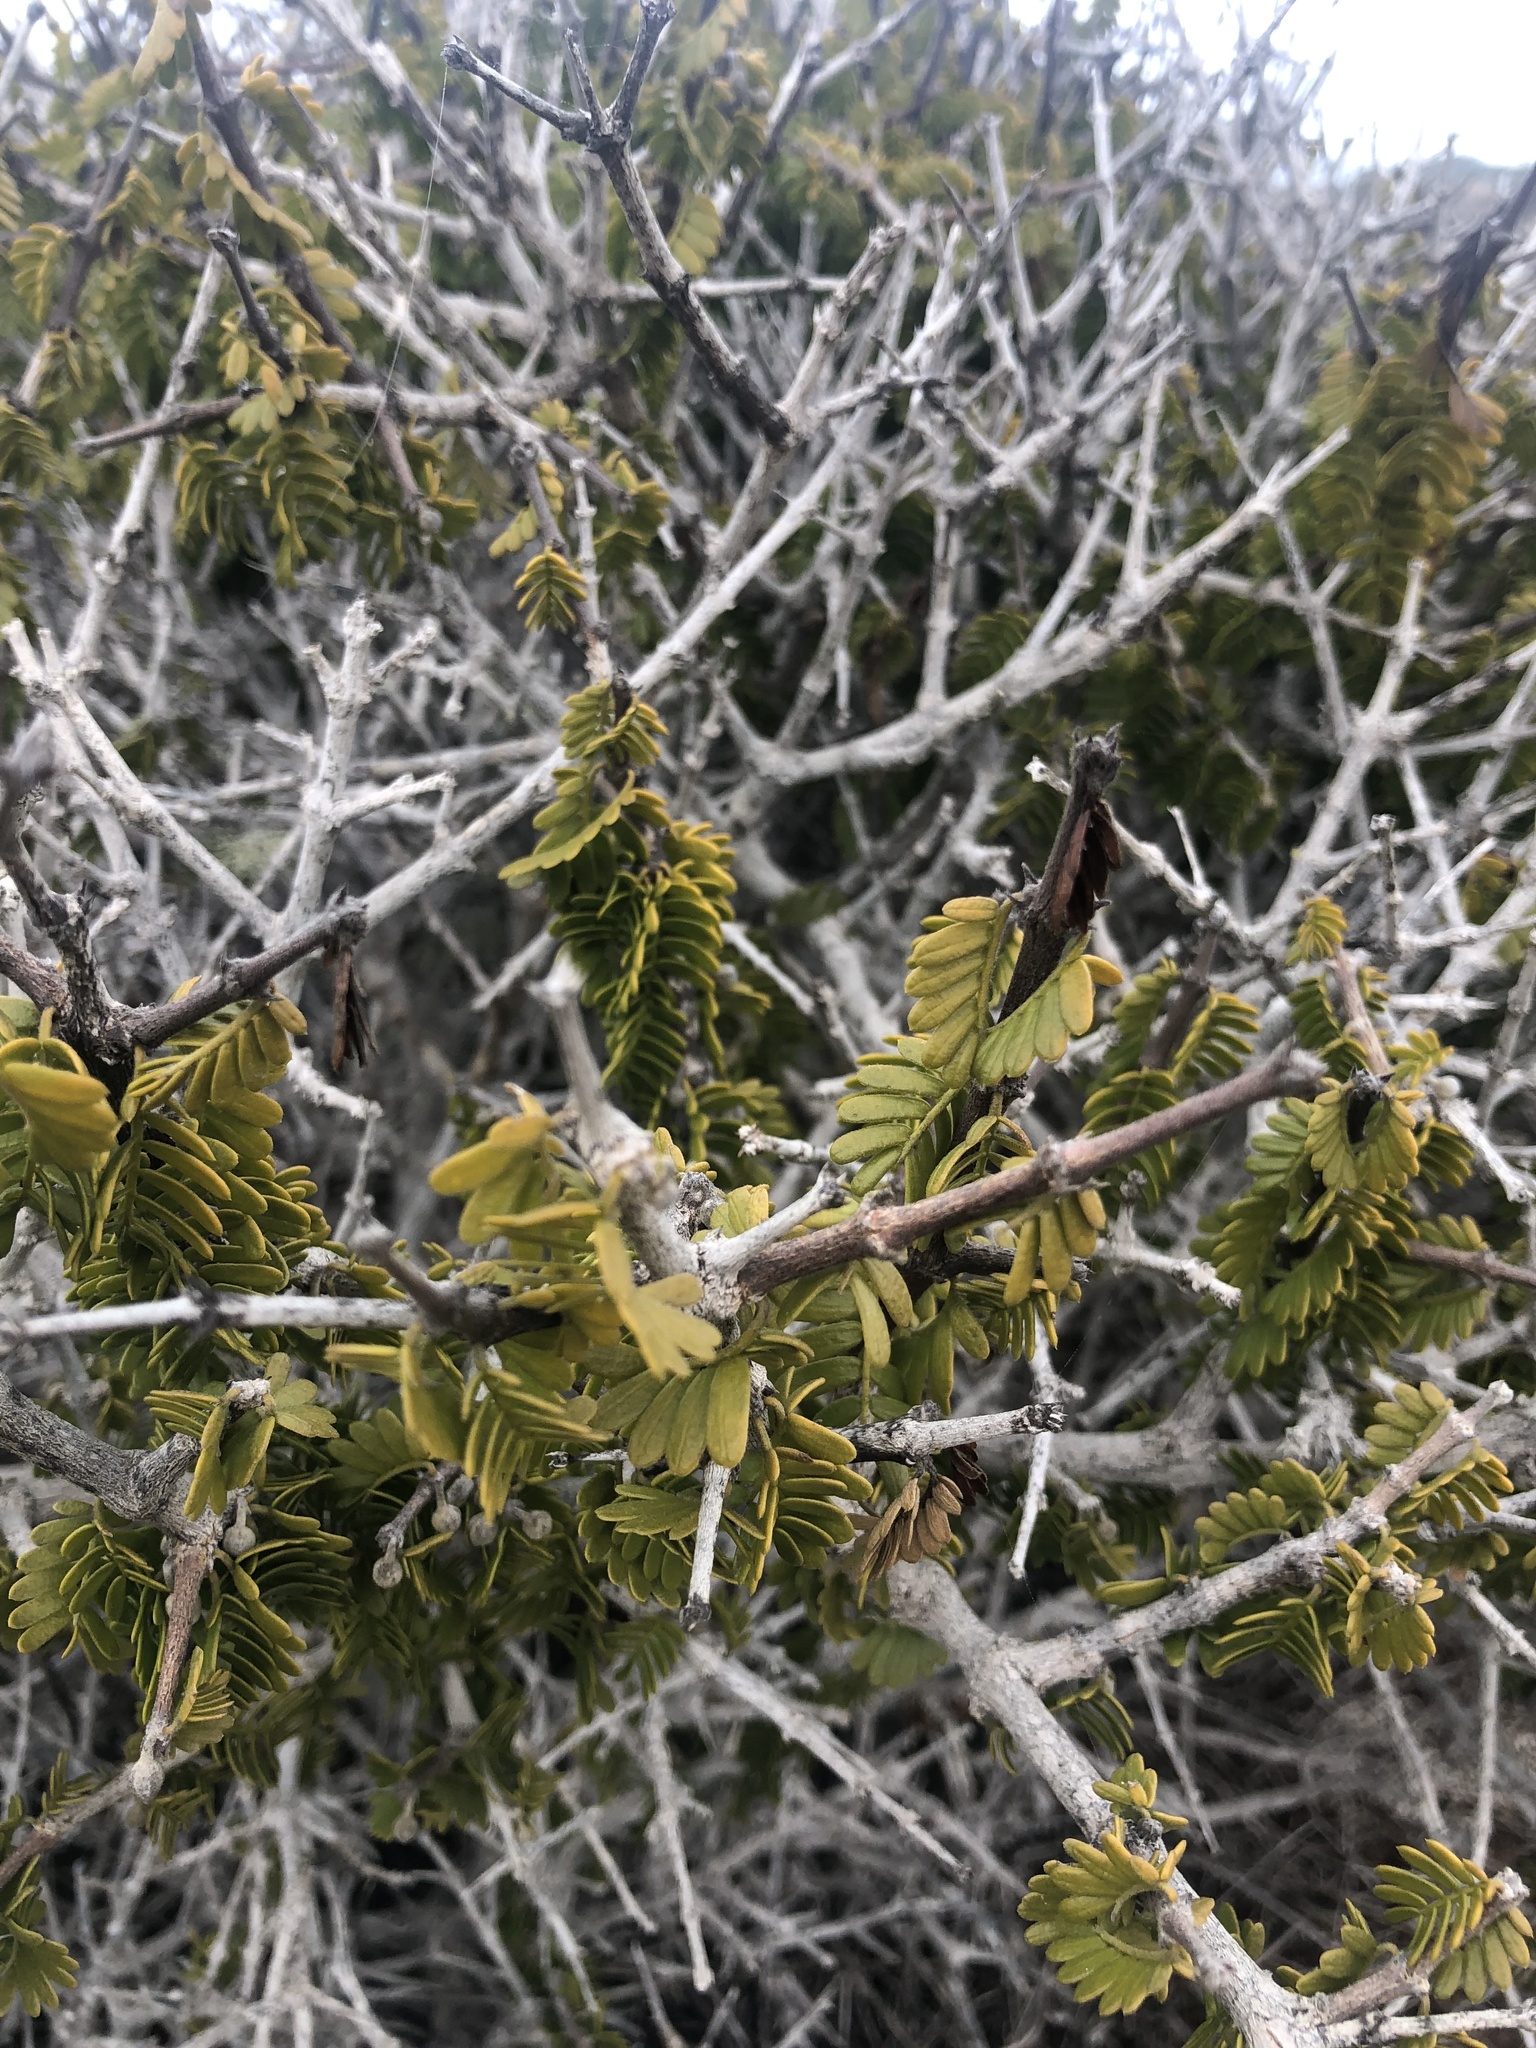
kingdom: Plantae
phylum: Tracheophyta
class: Magnoliopsida
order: Zygophyllales
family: Zygophyllaceae
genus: Porlieria
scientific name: Porlieria chilensis
